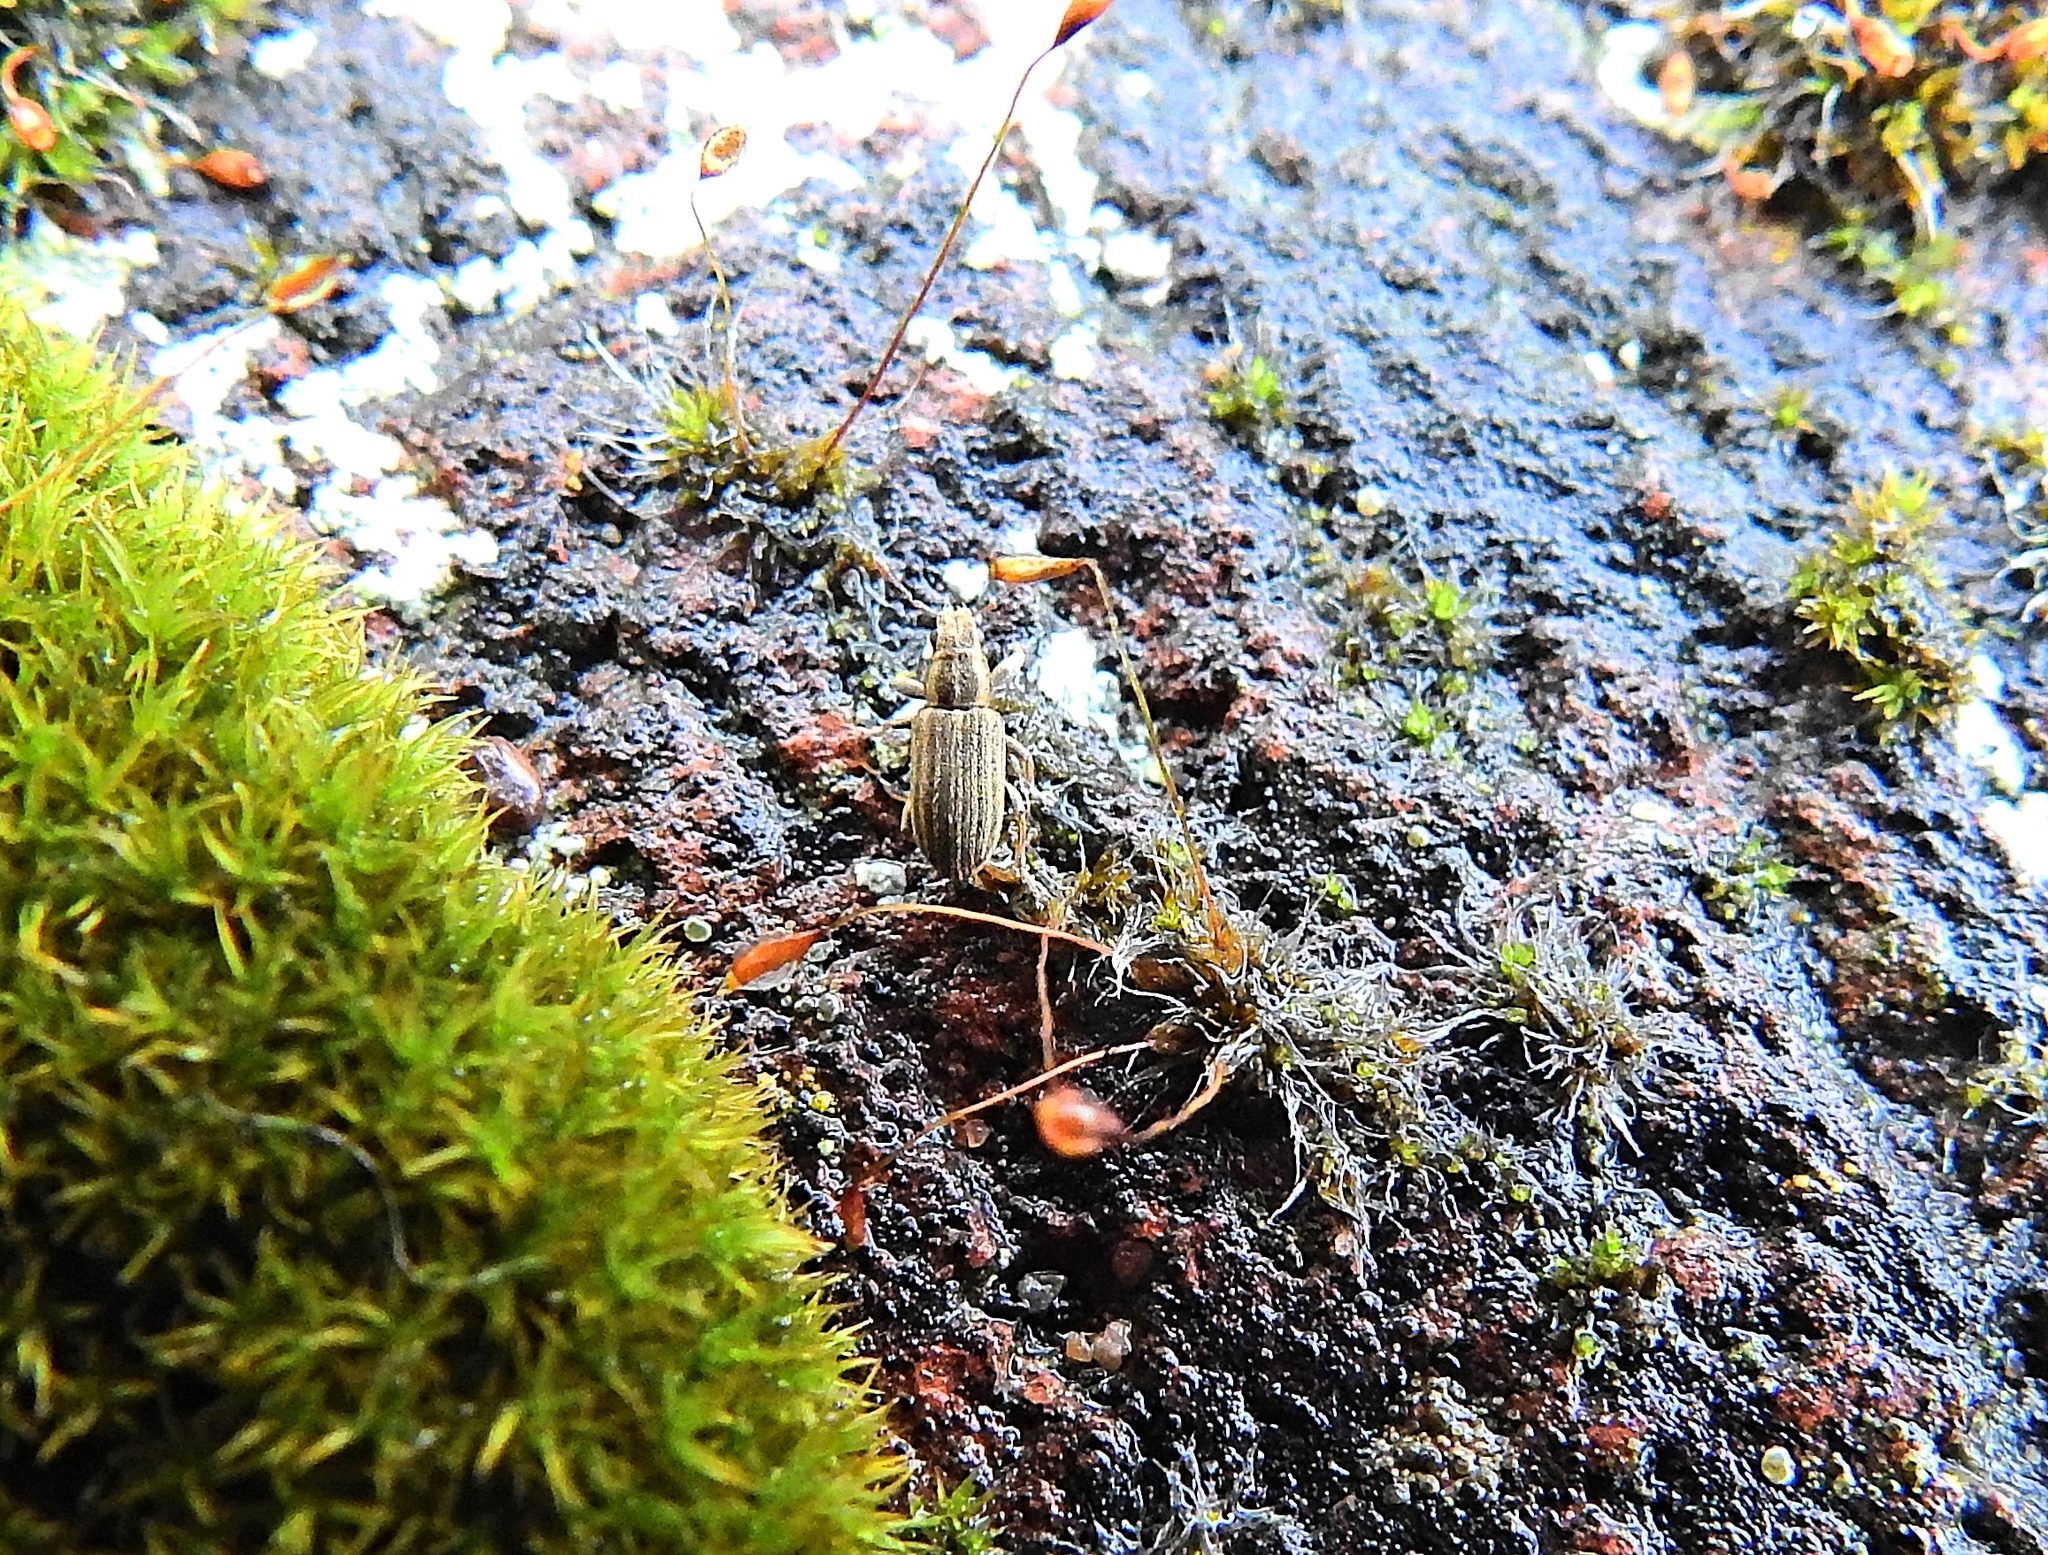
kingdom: Animalia
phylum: Arthropoda
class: Insecta
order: Coleoptera
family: Curculionidae
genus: Sitona
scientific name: Sitona lineatus
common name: Weevil
